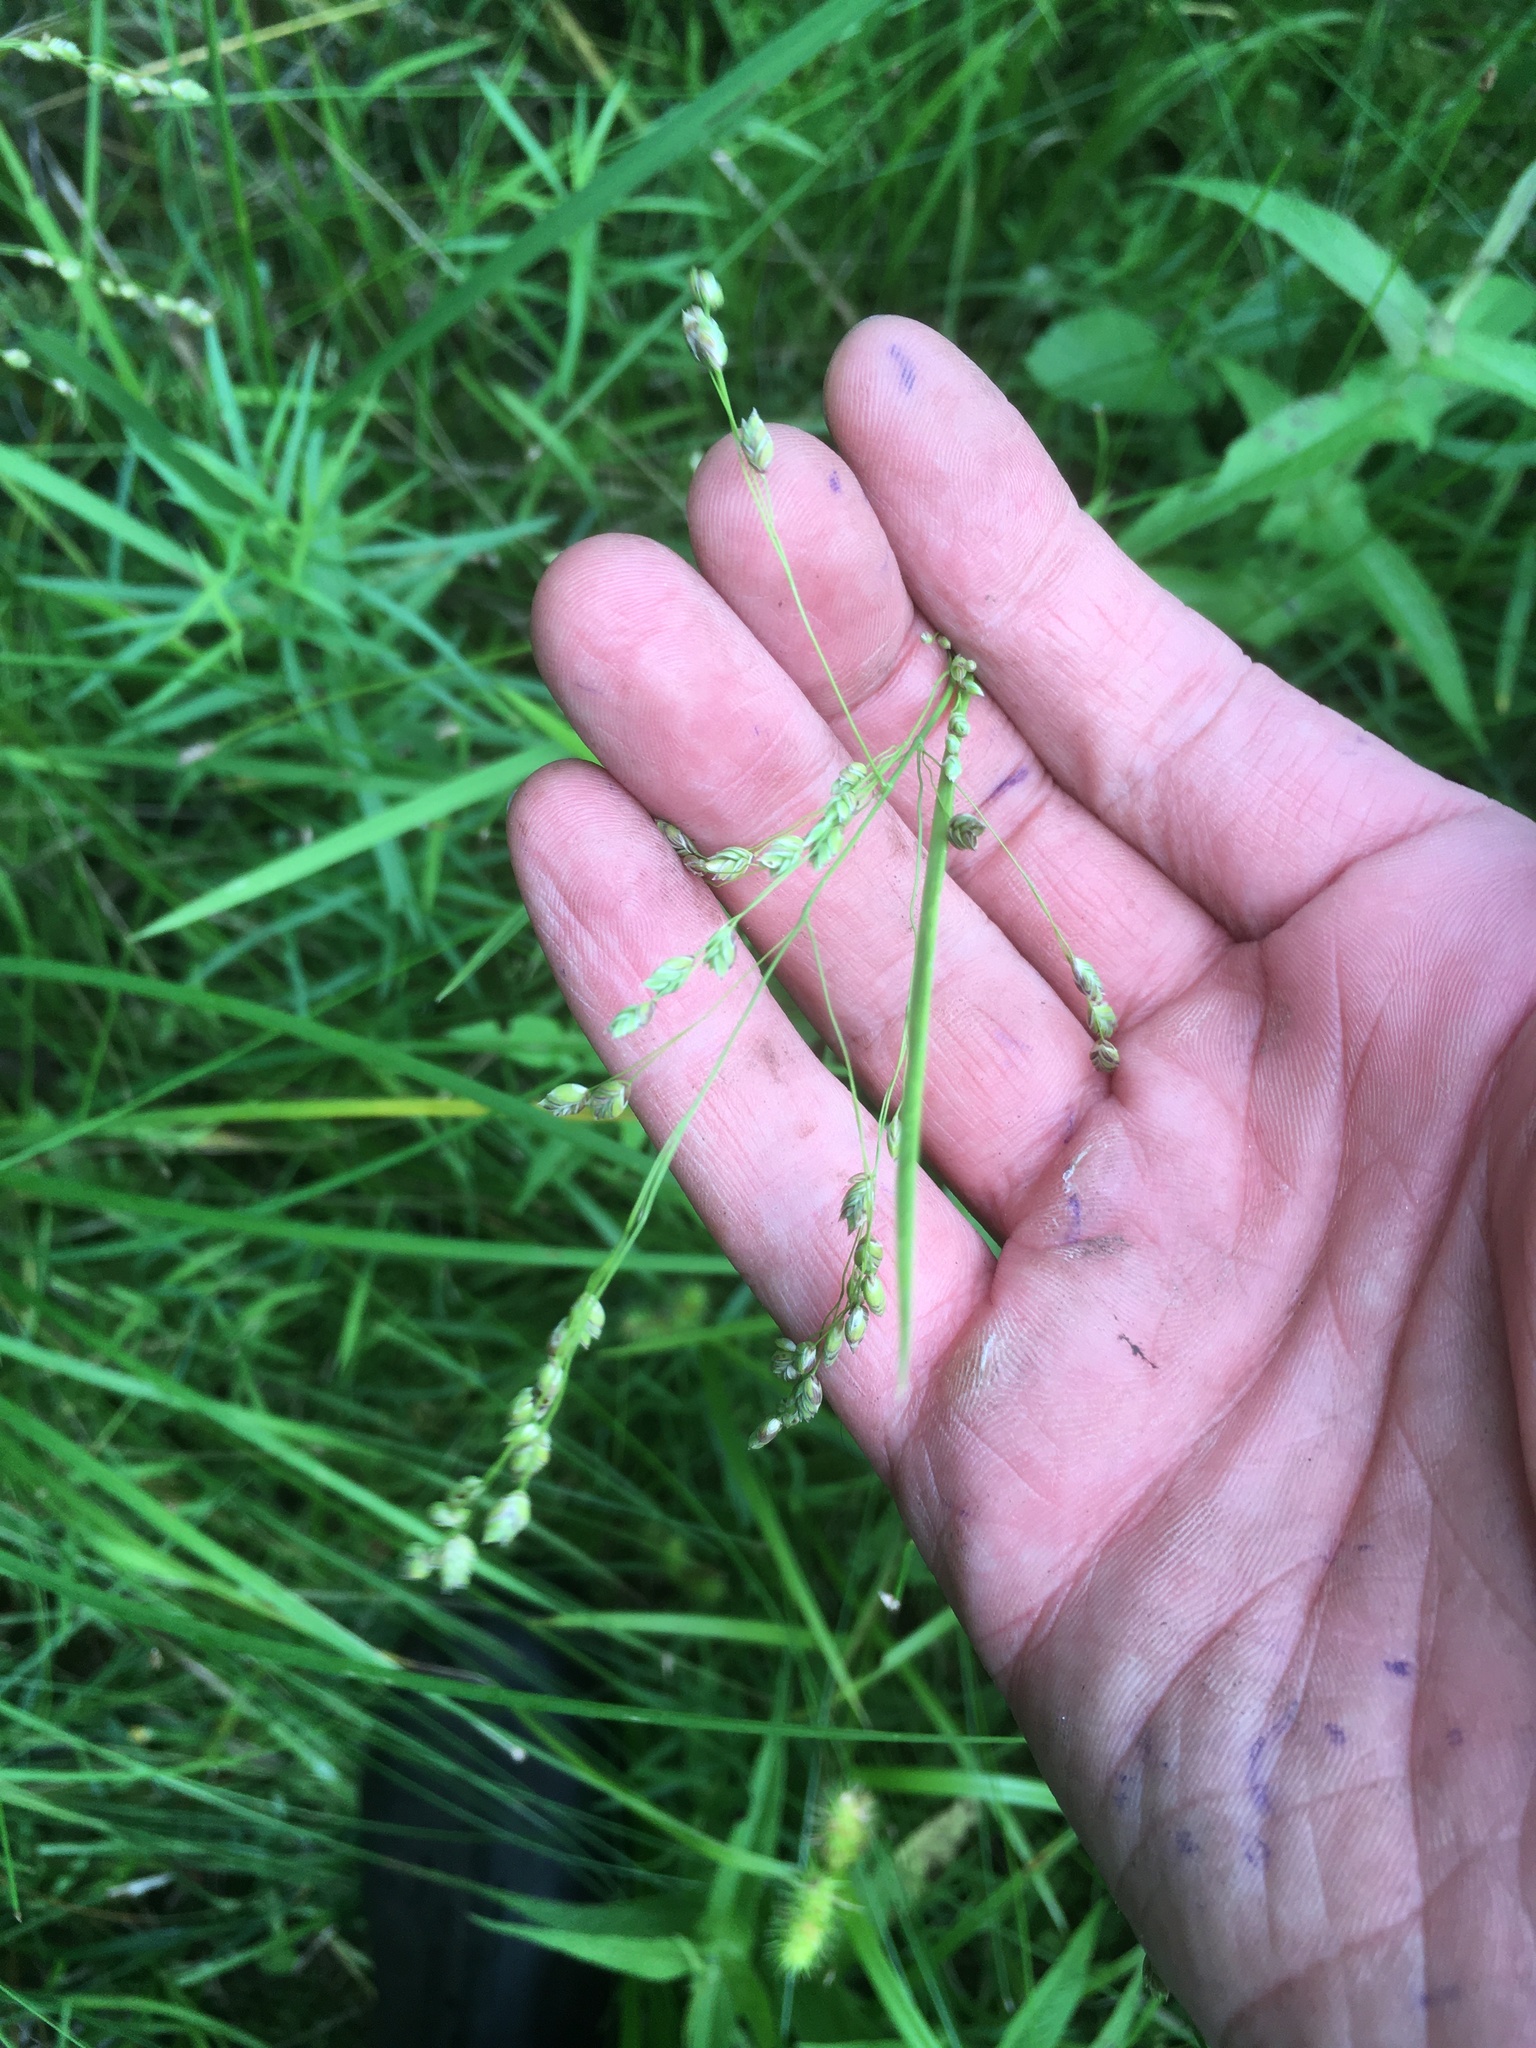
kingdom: Plantae
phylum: Tracheophyta
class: Liliopsida
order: Poales
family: Poaceae
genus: Glyceria
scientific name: Glyceria canadensis
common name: Canada mannagrass
